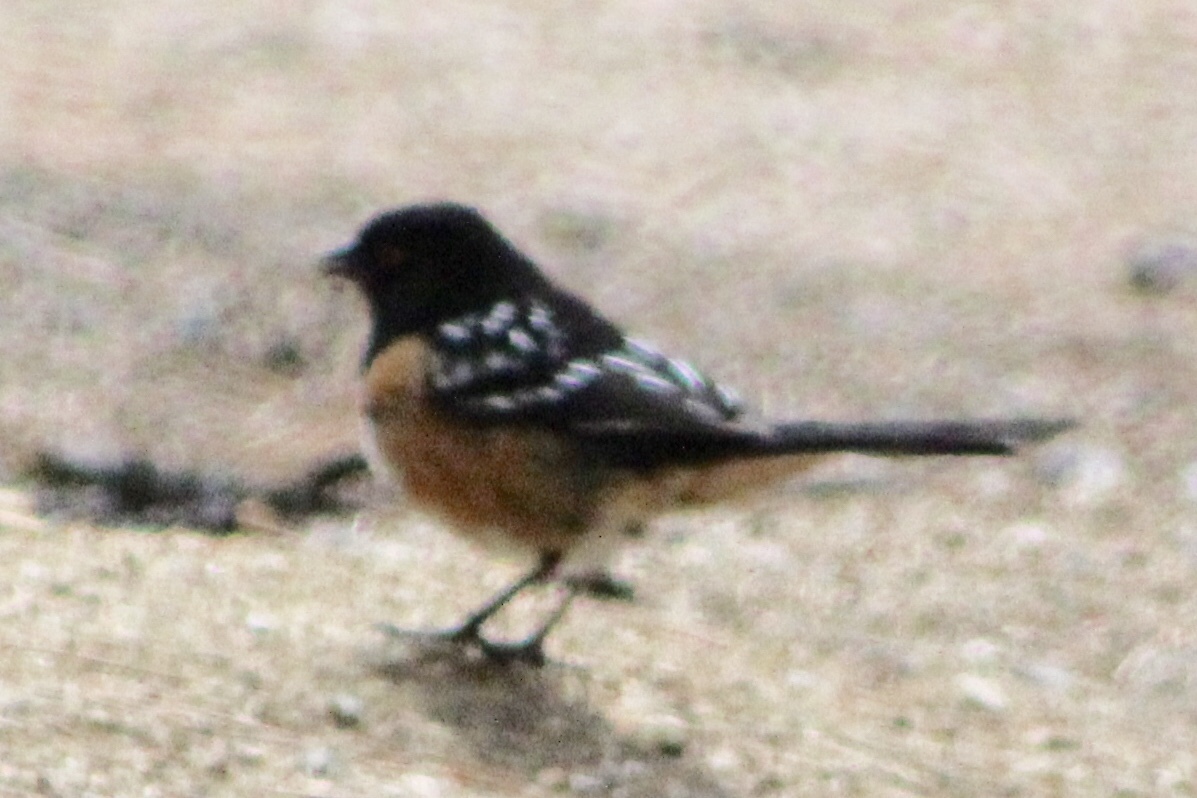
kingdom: Animalia
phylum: Chordata
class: Aves
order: Passeriformes
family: Passerellidae
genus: Pipilo
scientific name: Pipilo maculatus
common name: Spotted towhee
